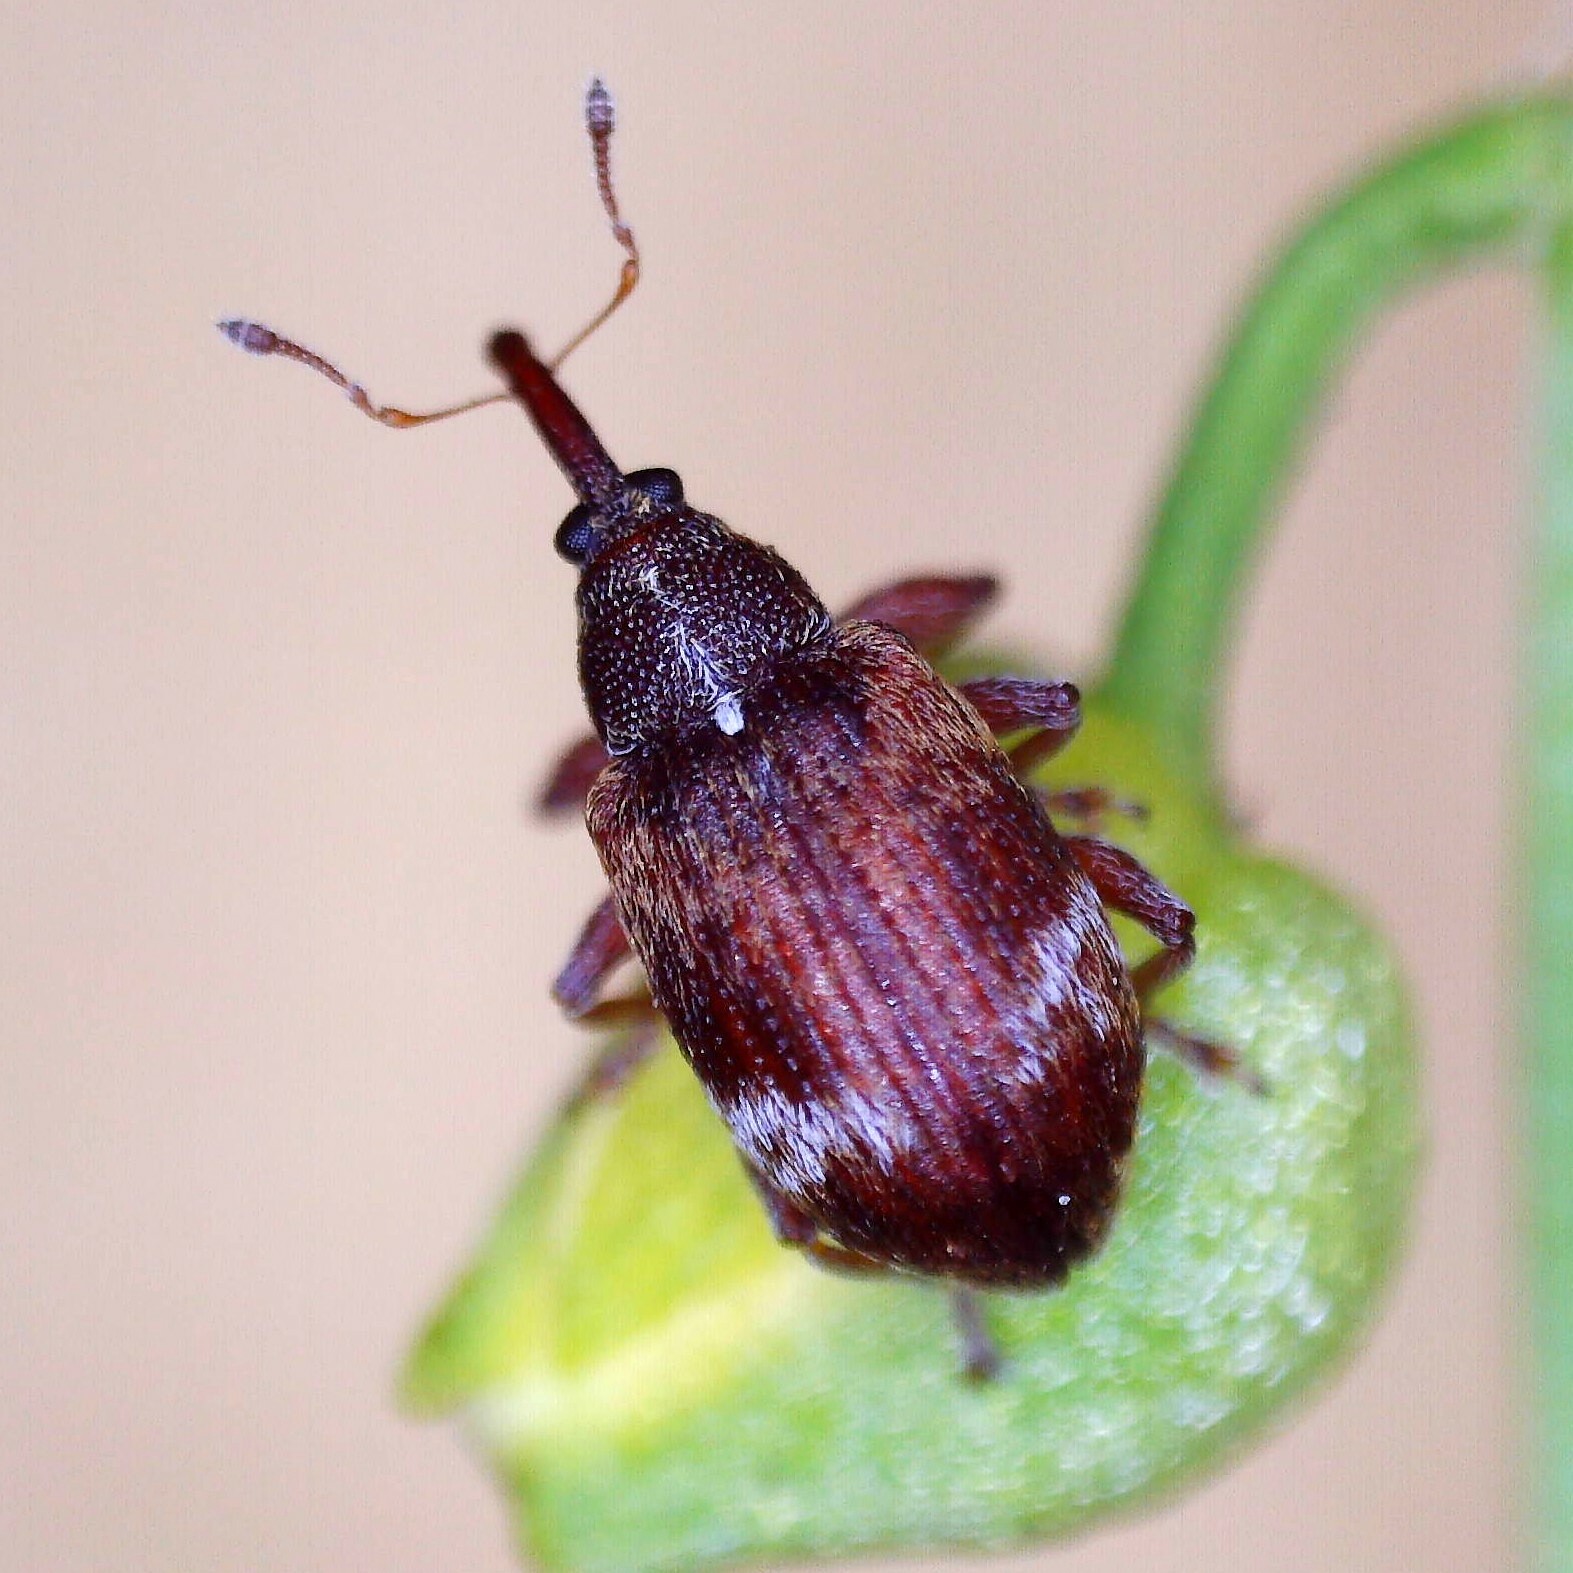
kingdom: Animalia
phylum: Arthropoda
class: Insecta
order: Coleoptera
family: Curculionidae
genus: Anthonomus
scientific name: Anthonomus pedicularius
